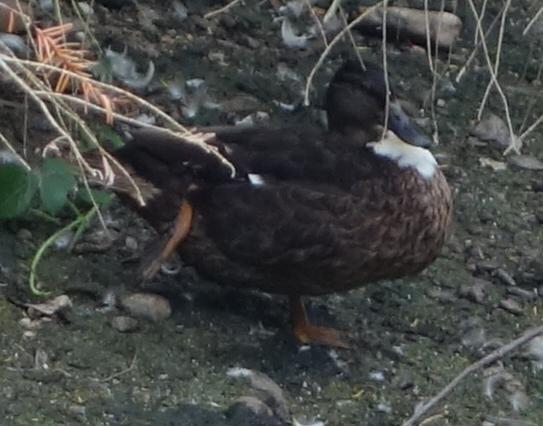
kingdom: Animalia
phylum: Chordata
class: Aves
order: Anseriformes
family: Anatidae
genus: Anas
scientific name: Anas platyrhynchos
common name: Mallard
